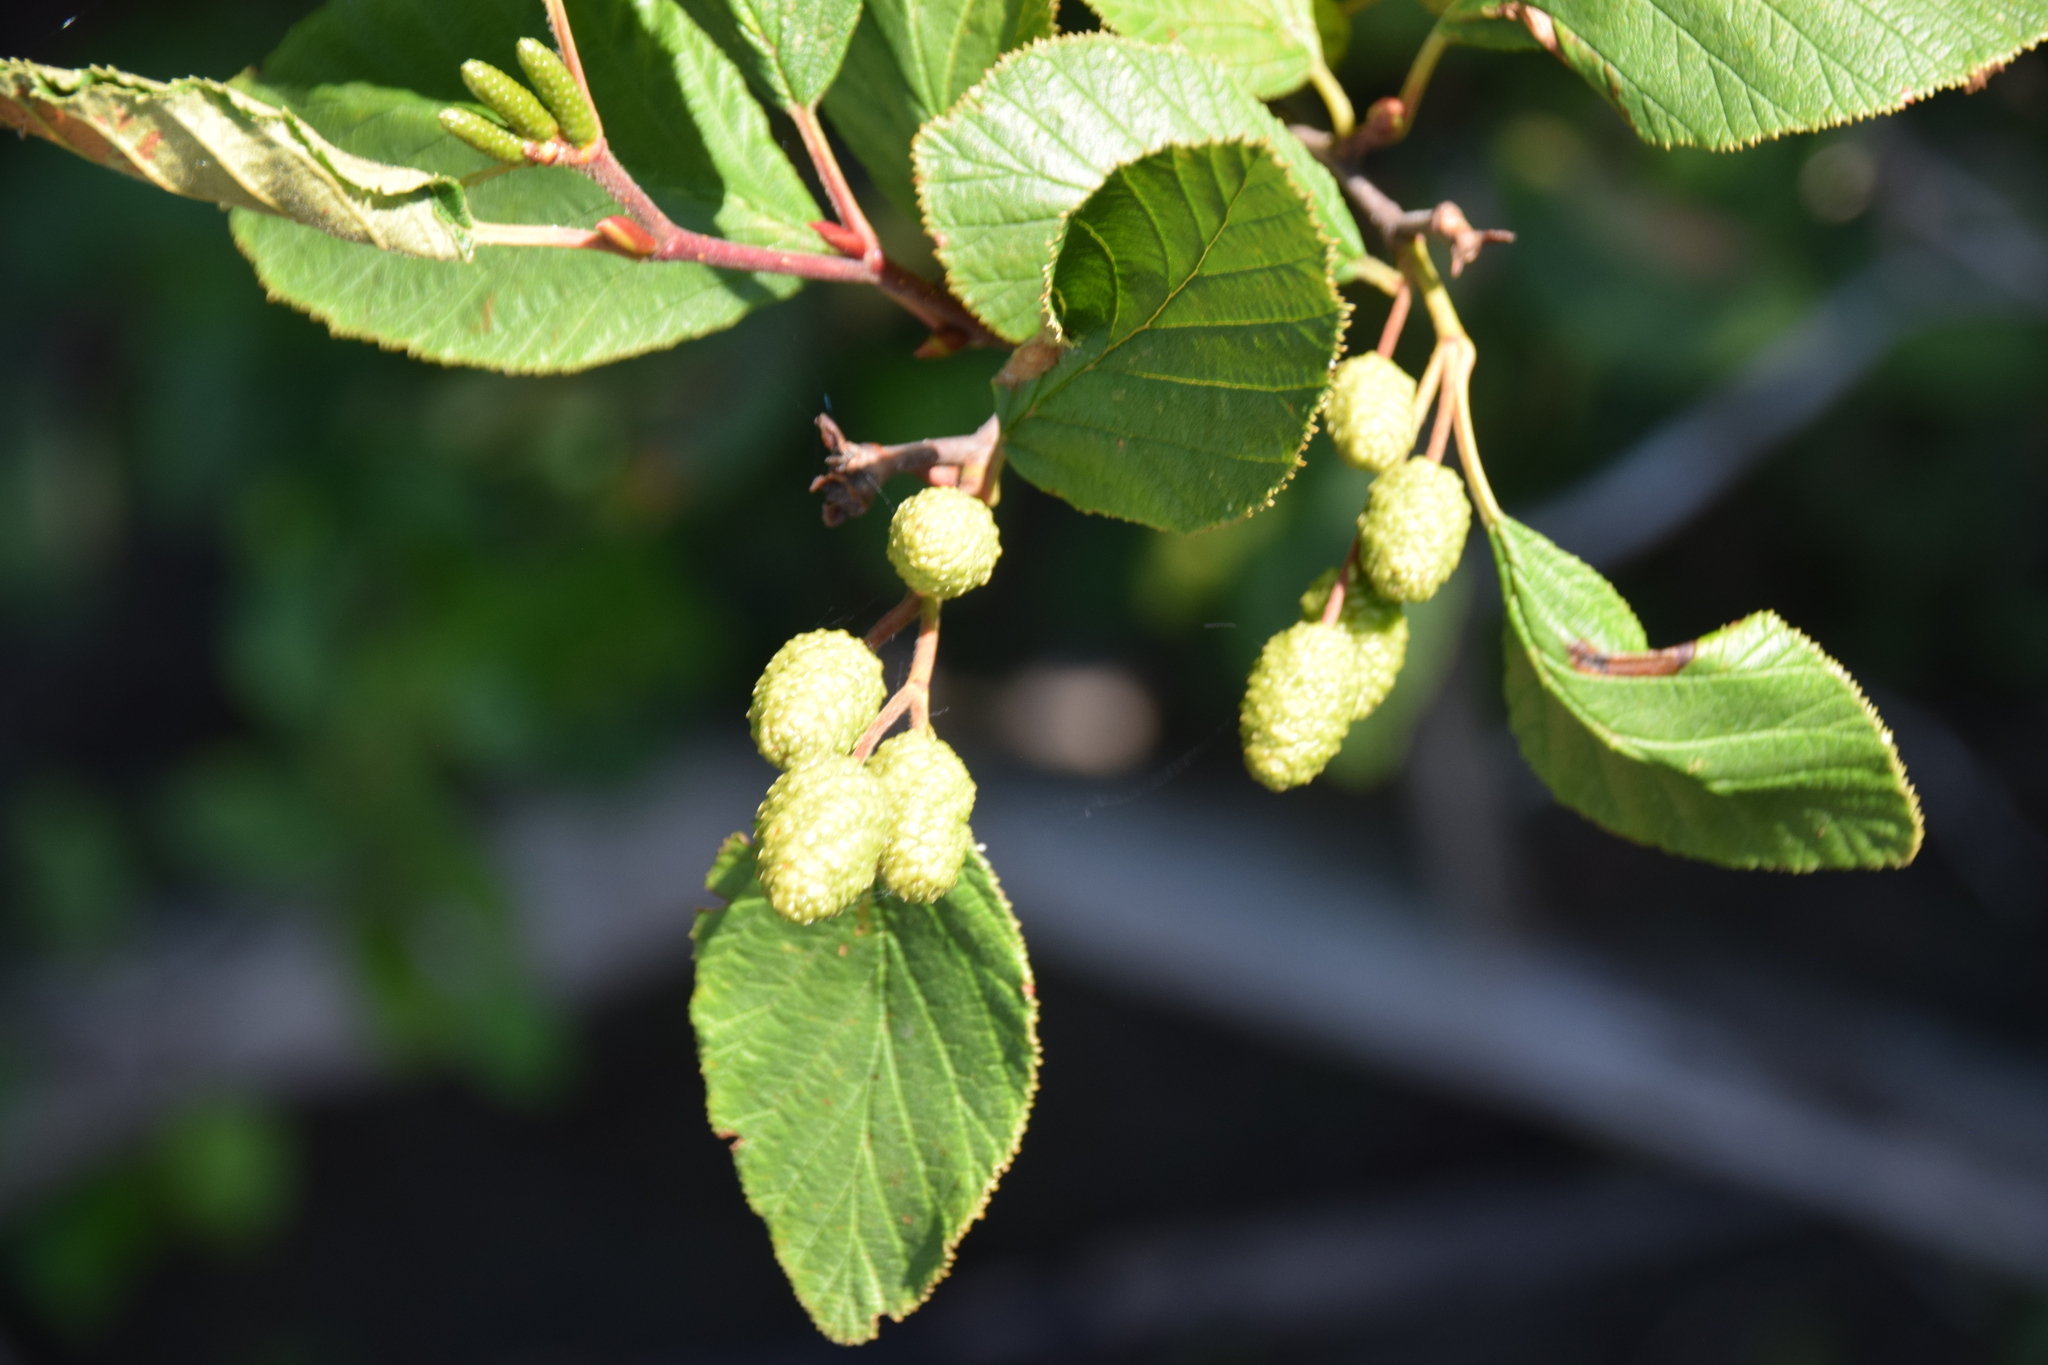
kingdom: Plantae
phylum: Tracheophyta
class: Magnoliopsida
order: Fagales
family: Betulaceae
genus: Alnus
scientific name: Alnus alnobetula
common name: Green alder
